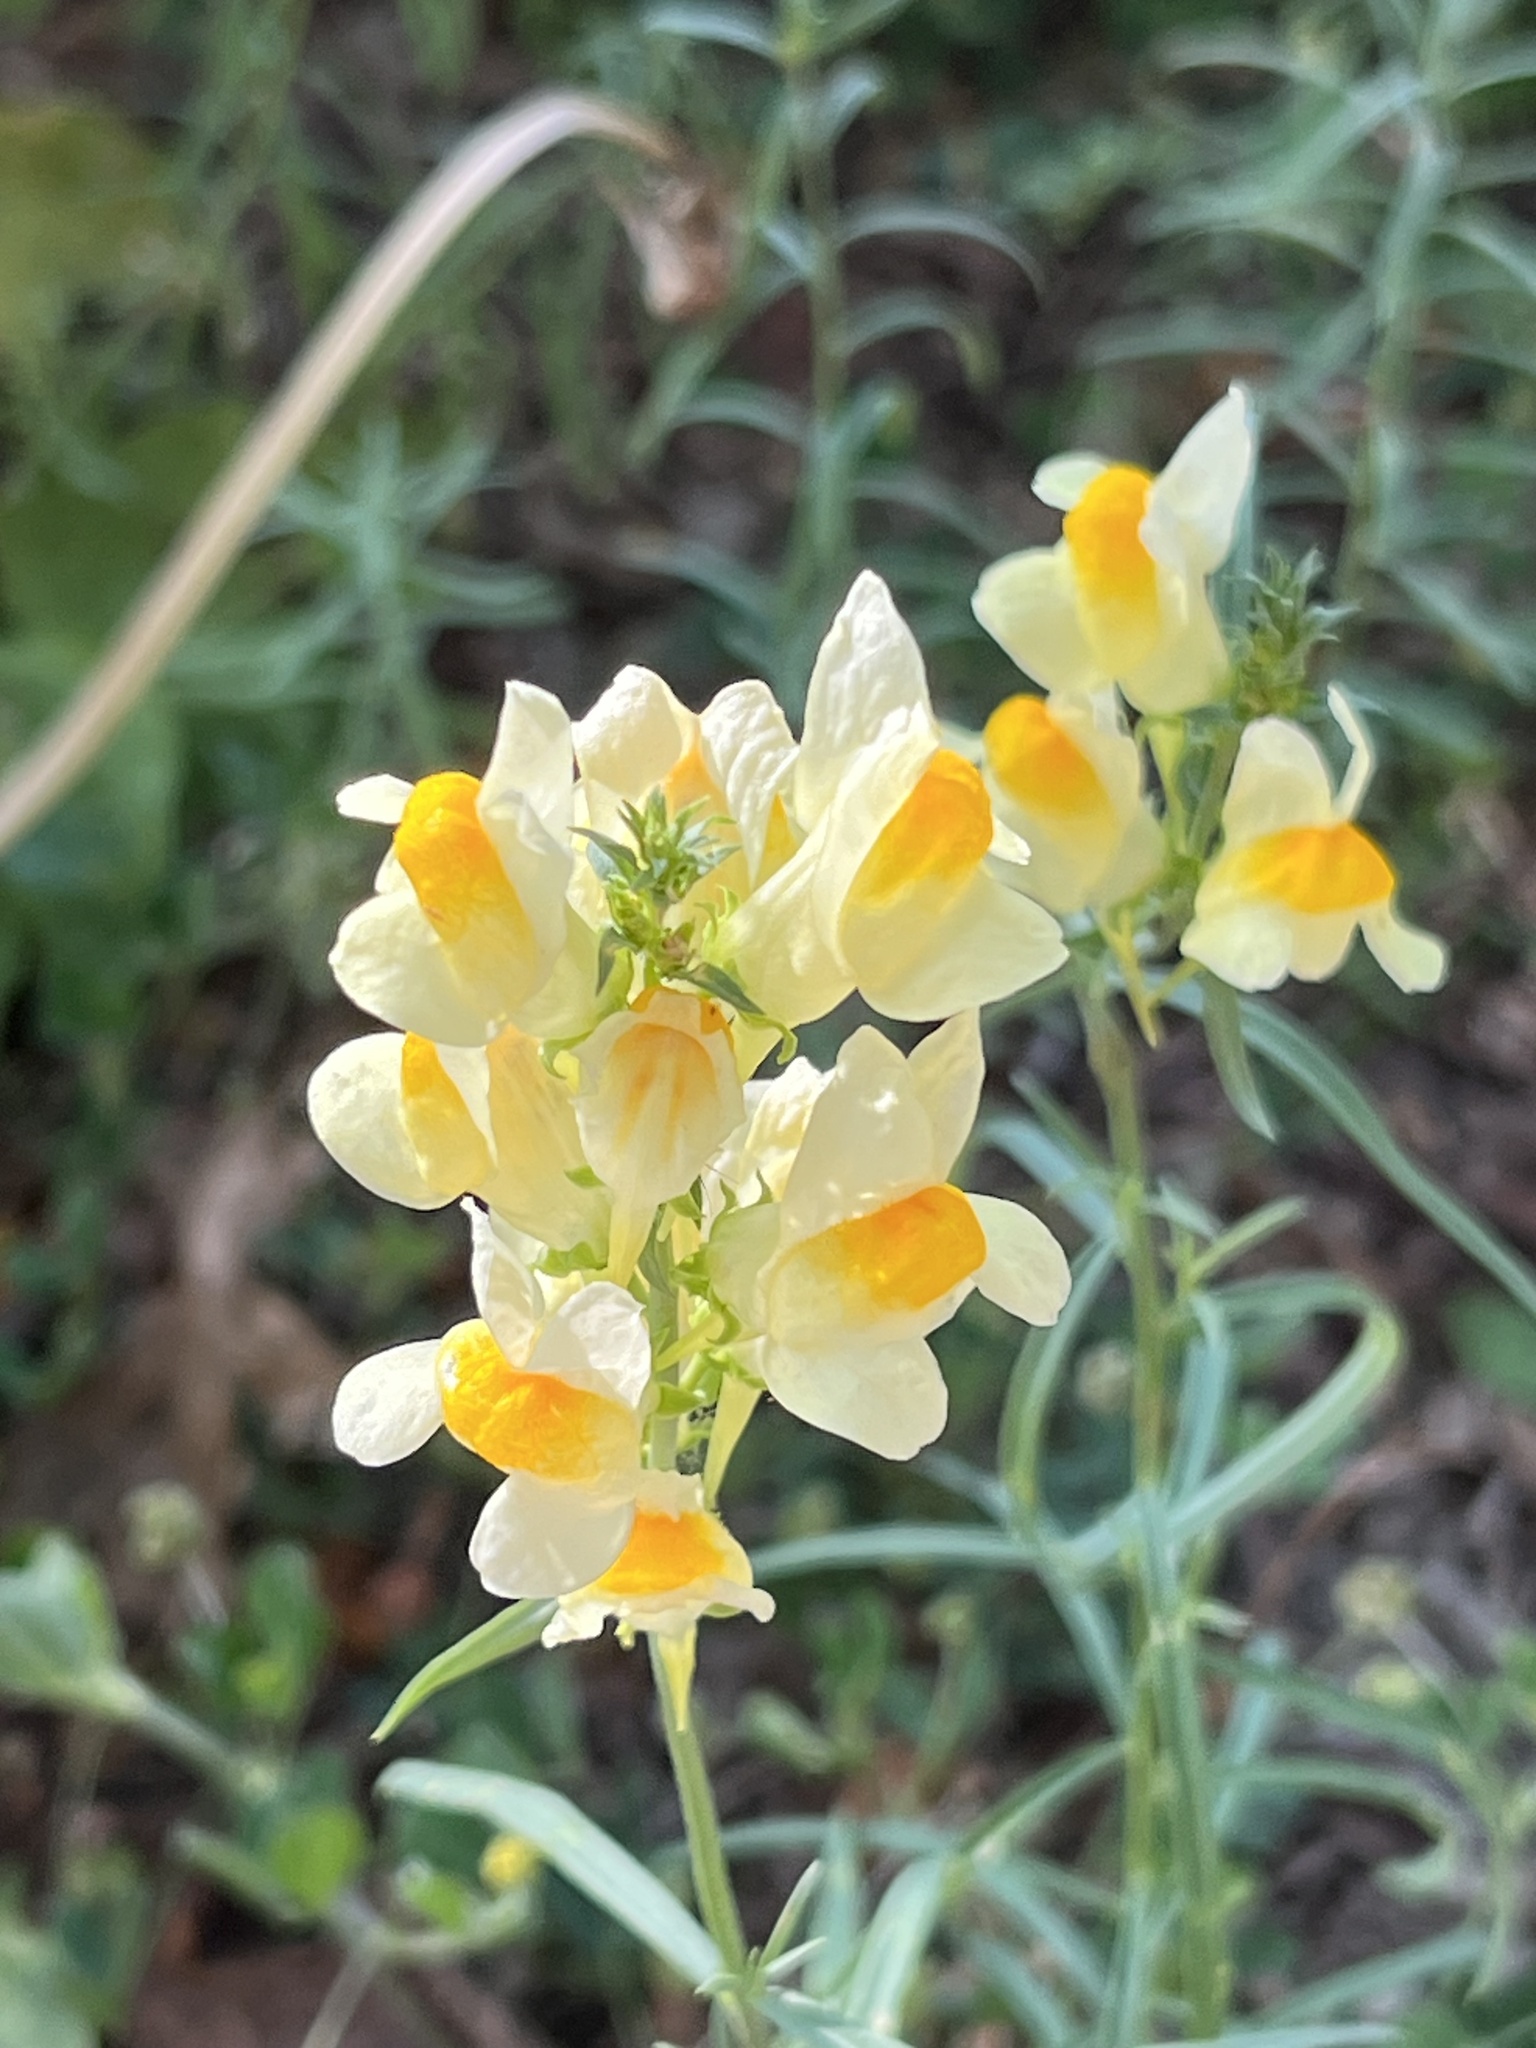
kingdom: Plantae
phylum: Tracheophyta
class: Magnoliopsida
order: Lamiales
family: Plantaginaceae
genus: Linaria
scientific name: Linaria vulgaris
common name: Butter and eggs
